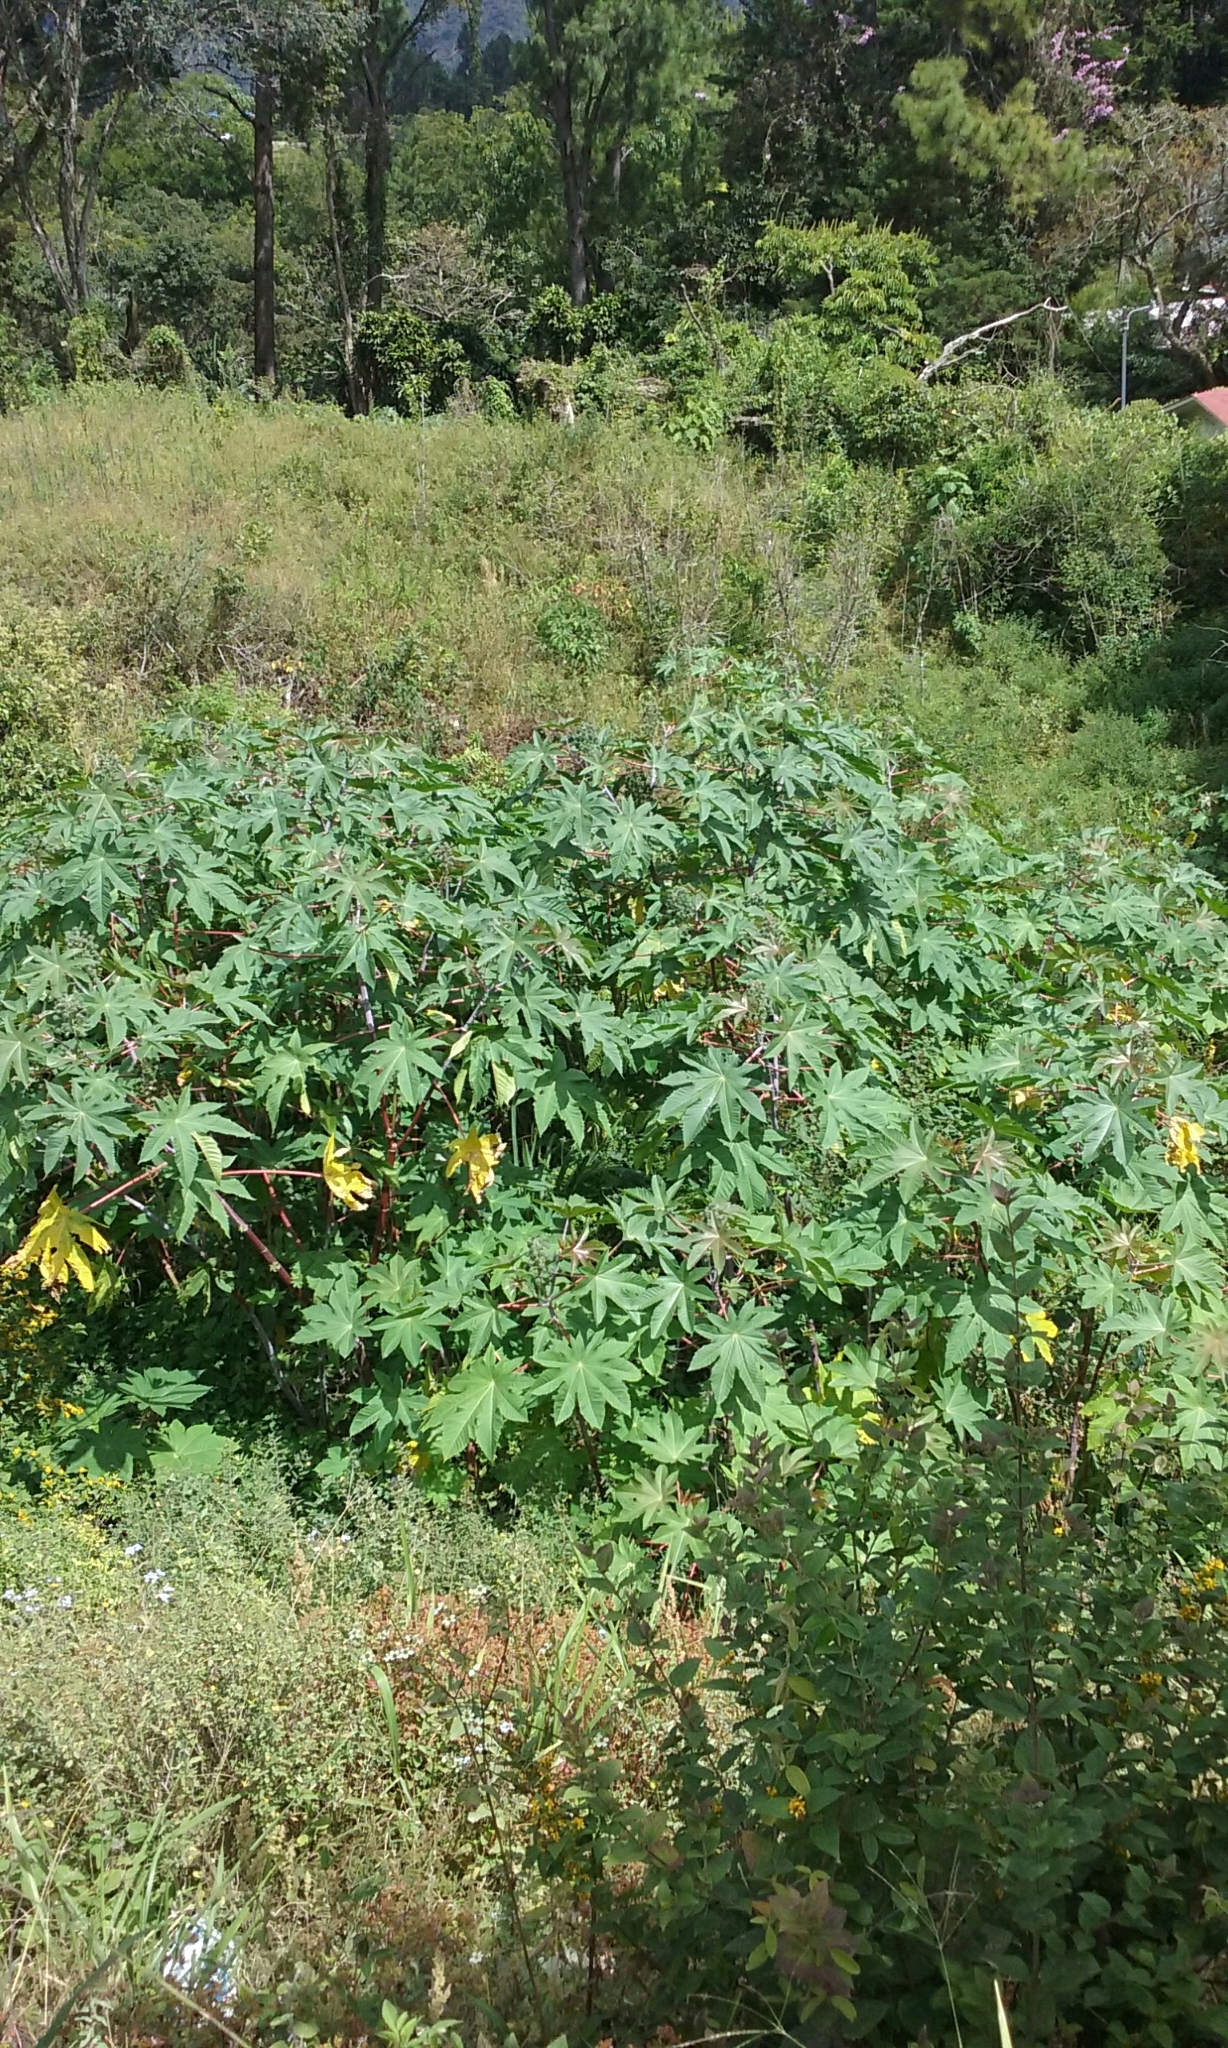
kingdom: Plantae
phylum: Tracheophyta
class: Magnoliopsida
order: Malpighiales
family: Euphorbiaceae
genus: Ricinus
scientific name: Ricinus communis
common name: Castor-oil-plant
